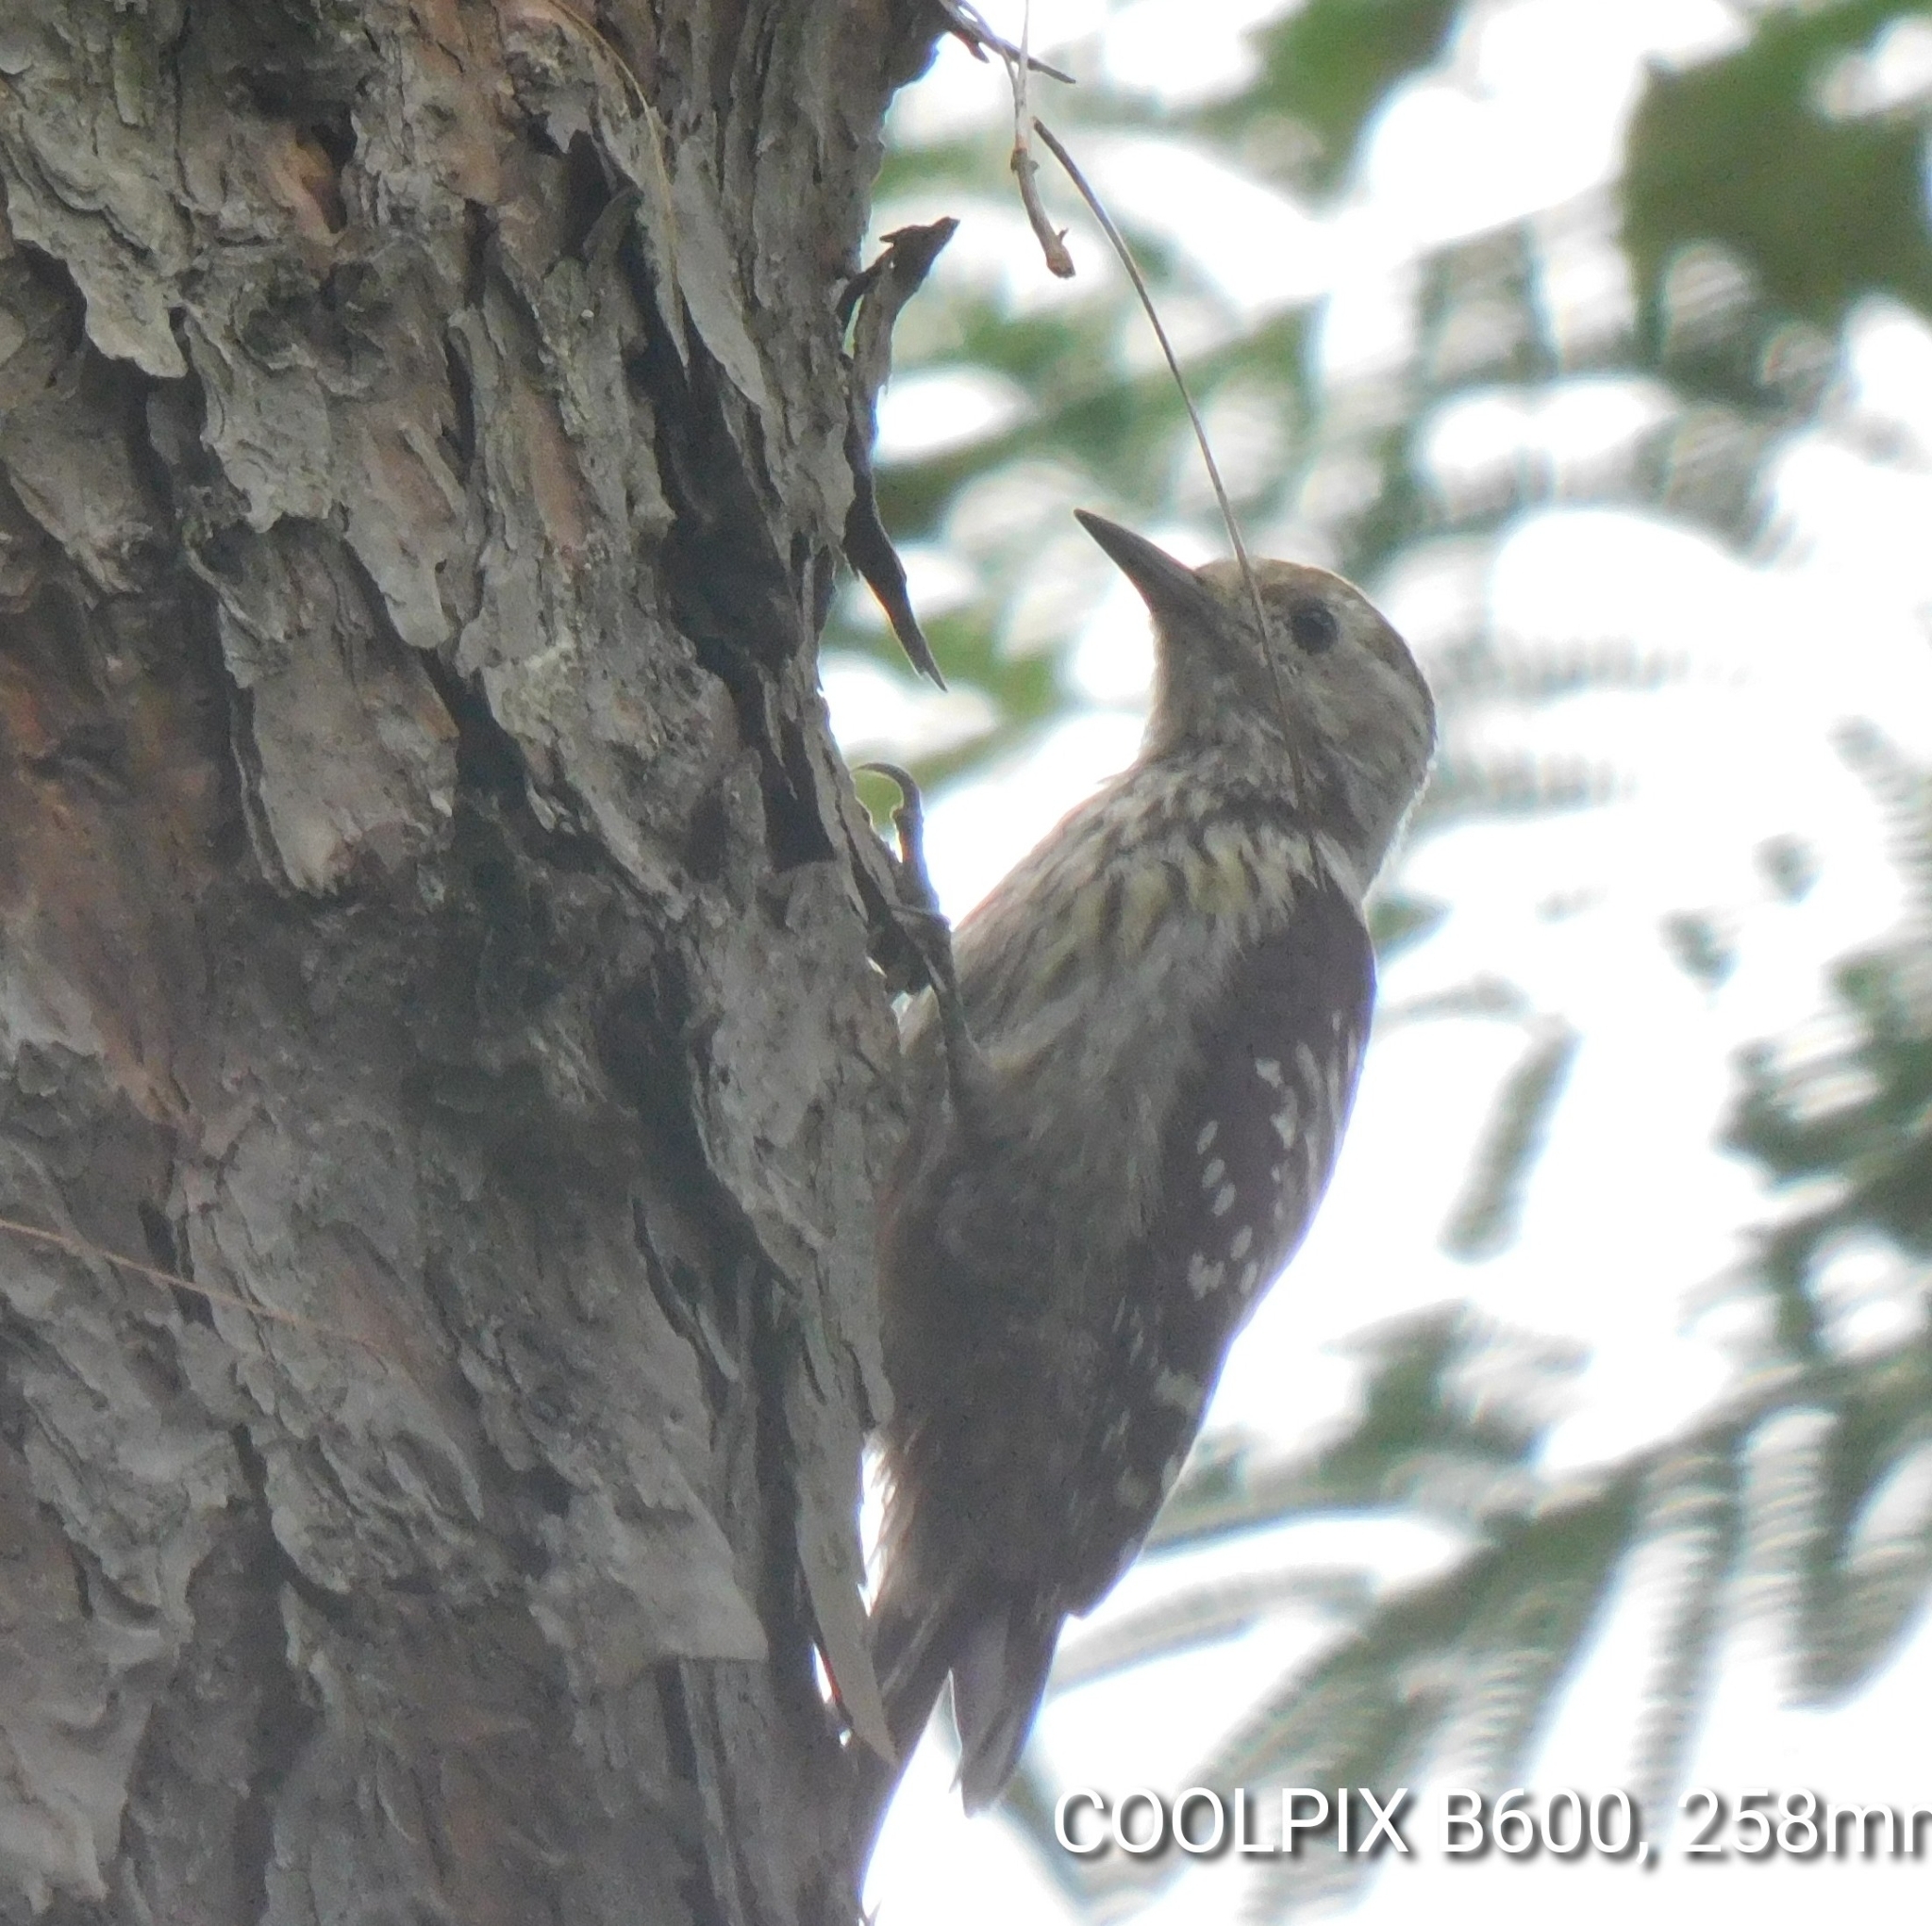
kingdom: Animalia
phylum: Chordata
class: Aves
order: Piciformes
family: Picidae
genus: Dendrocoptes
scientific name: Dendrocoptes auriceps
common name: Brown-fronted woodpecker
